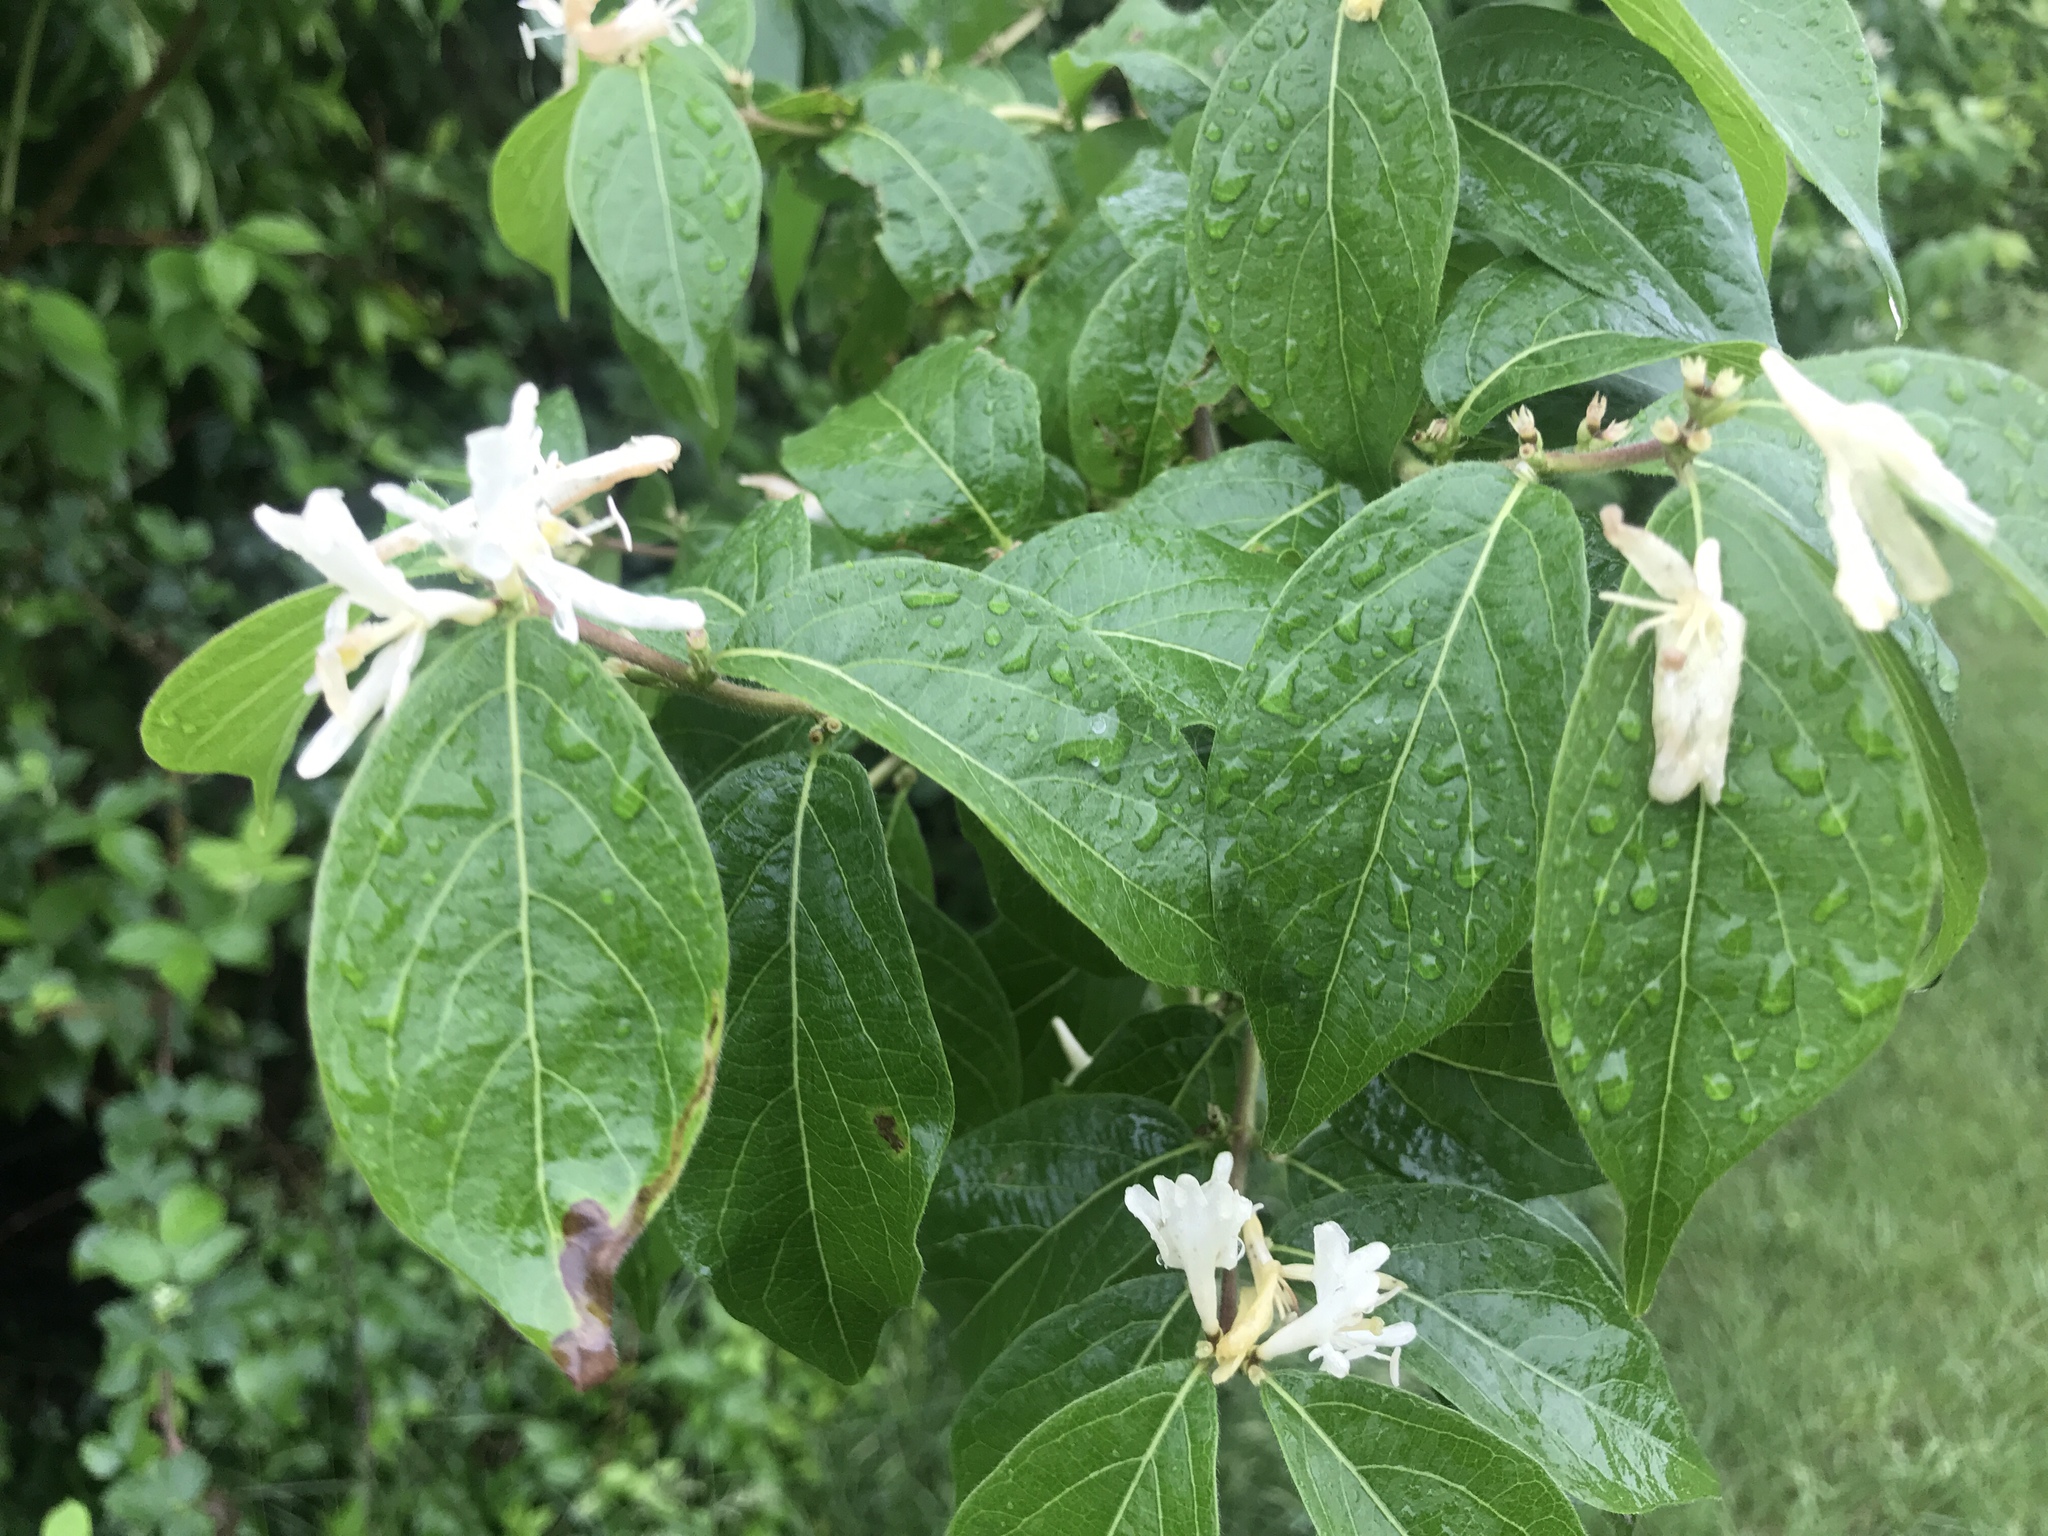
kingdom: Plantae
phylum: Tracheophyta
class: Magnoliopsida
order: Dipsacales
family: Caprifoliaceae
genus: Lonicera
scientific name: Lonicera maackii
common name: Amur honeysuckle
